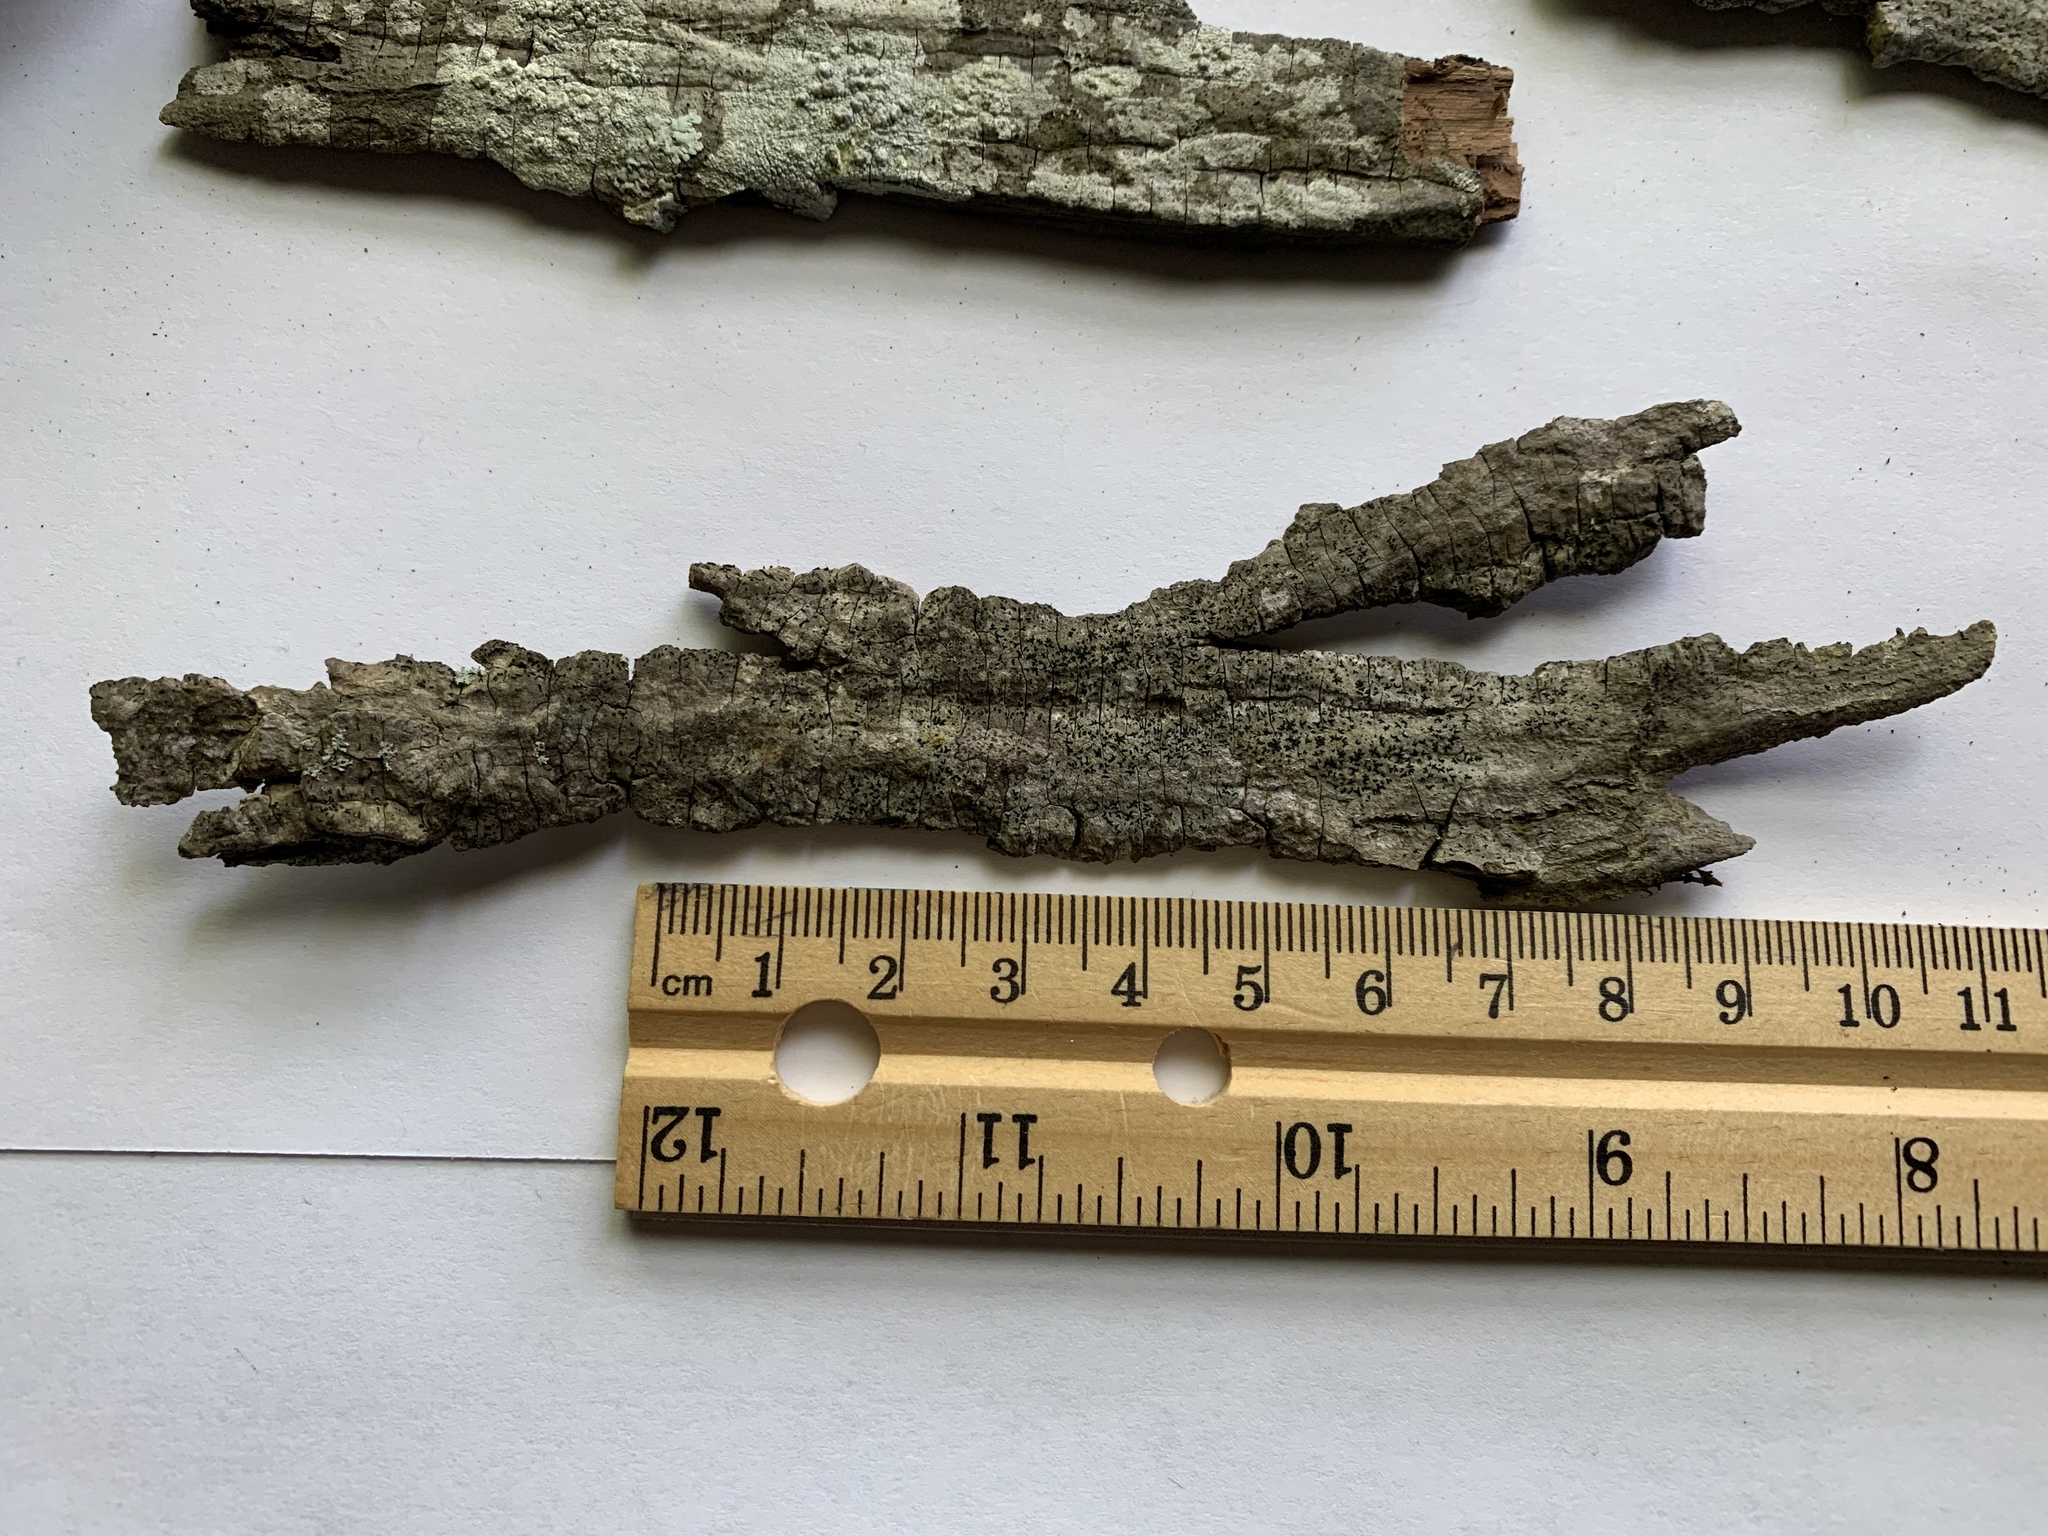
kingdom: Fungi
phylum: Ascomycota
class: Lecanoromycetes
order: Ostropales
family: Graphidaceae
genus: Opegrapha
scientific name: Opegrapha vulgata
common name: Olive scribble lichen
